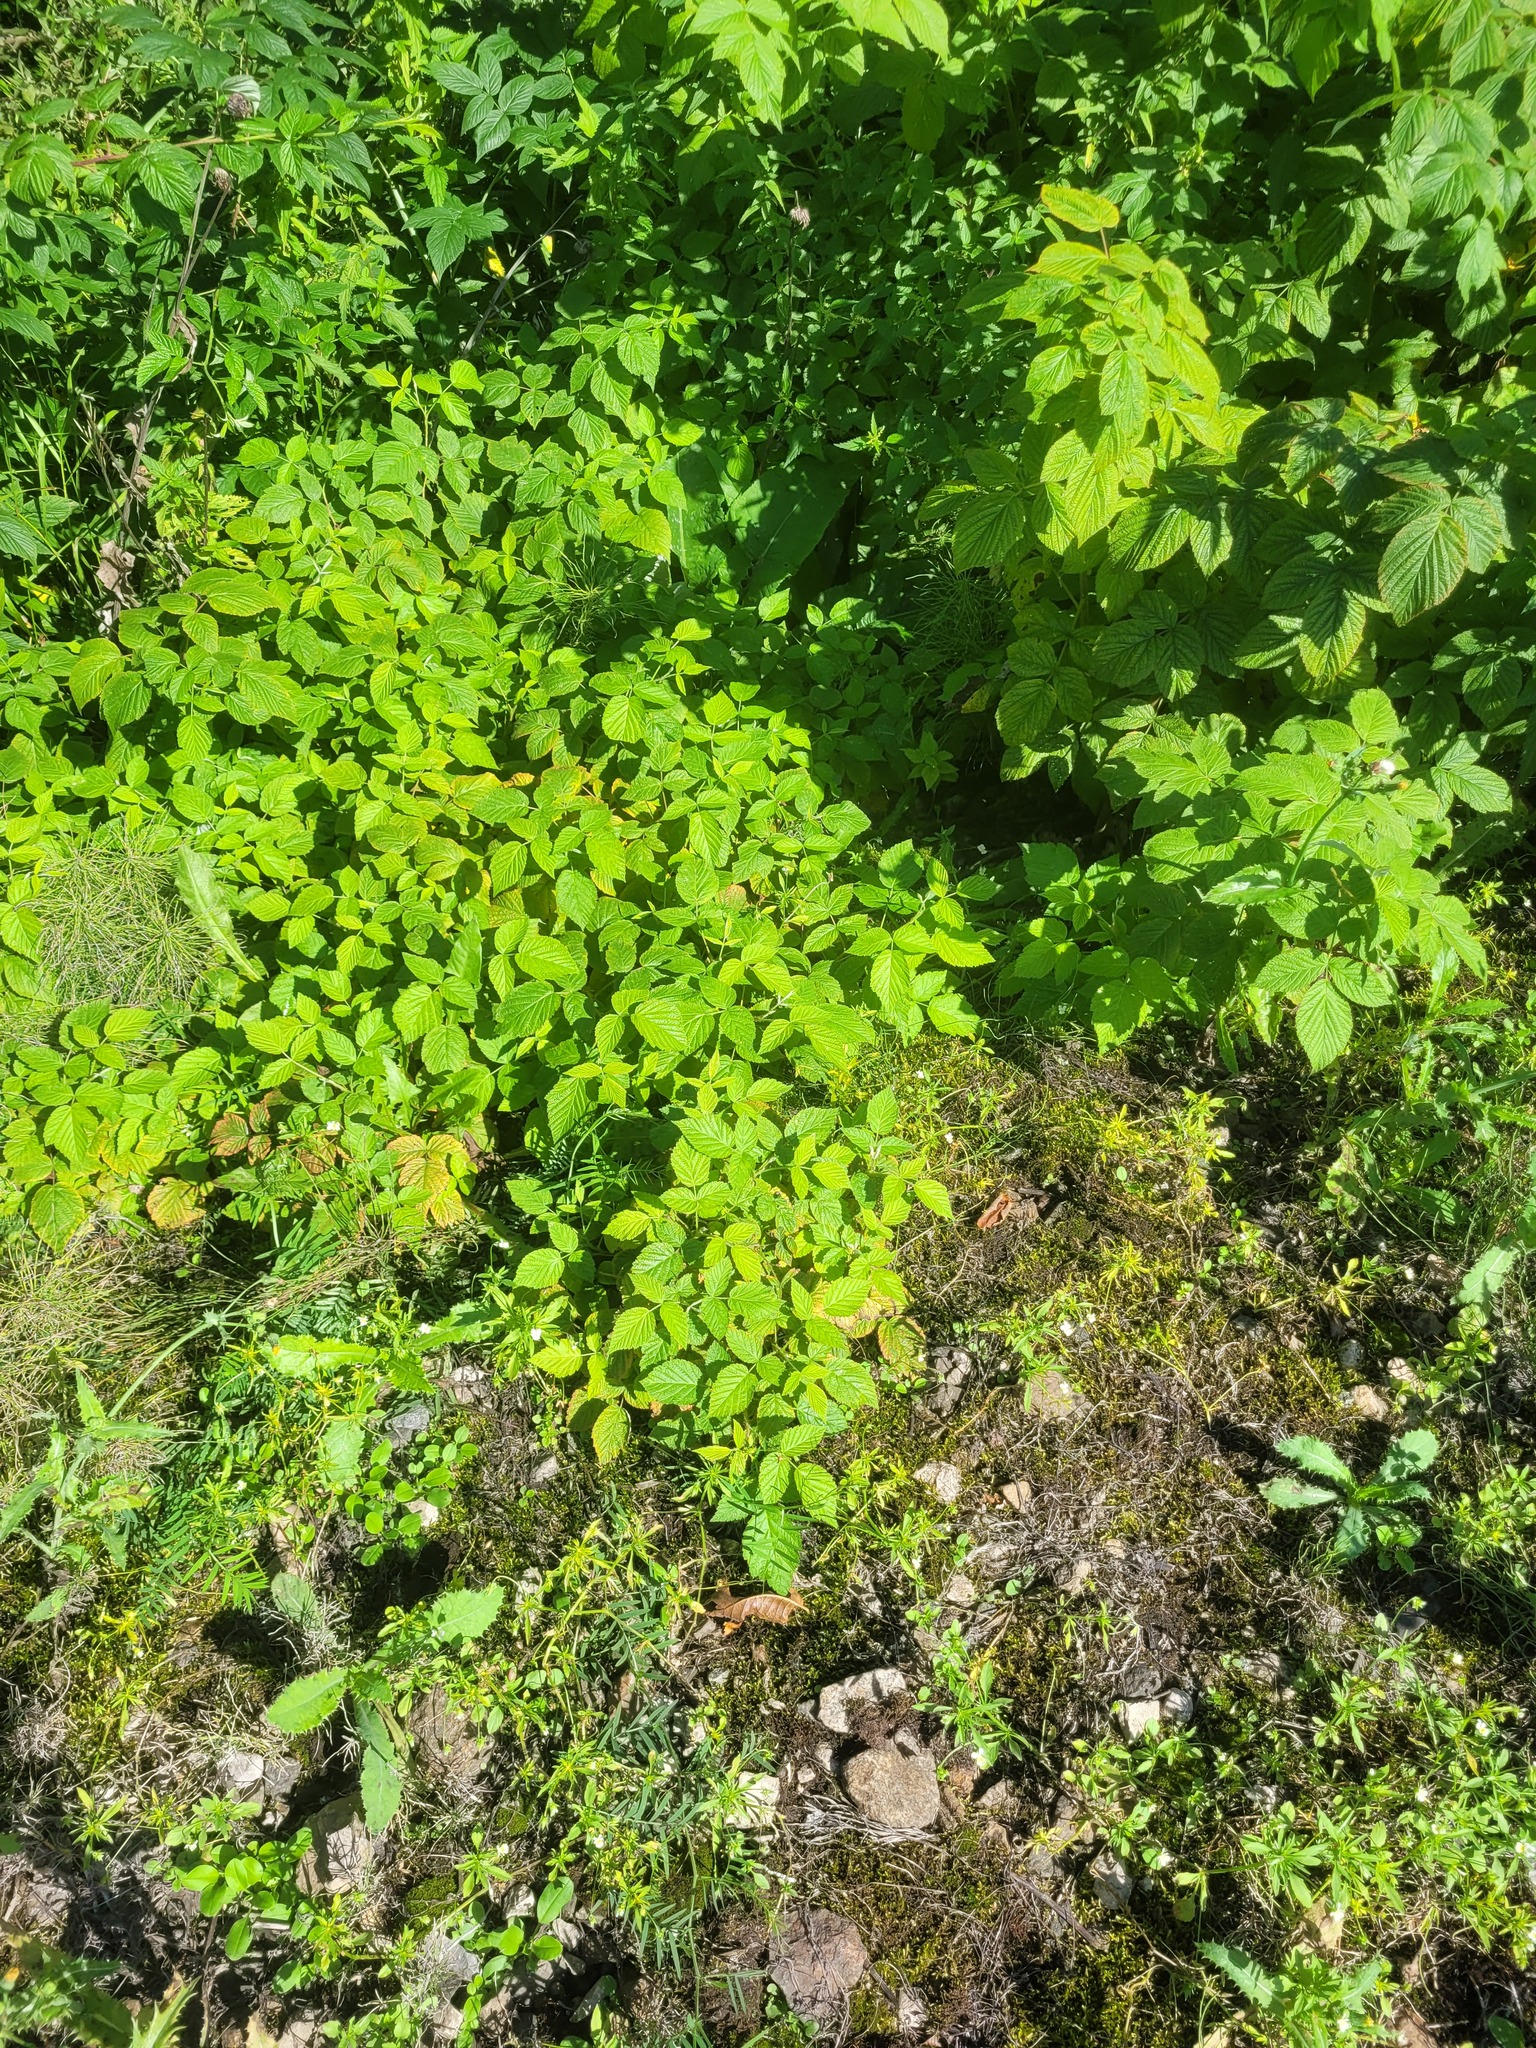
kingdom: Plantae
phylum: Tracheophyta
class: Magnoliopsida
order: Rosales
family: Rosaceae
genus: Rubus
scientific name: Rubus idaeus
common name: Raspberry
